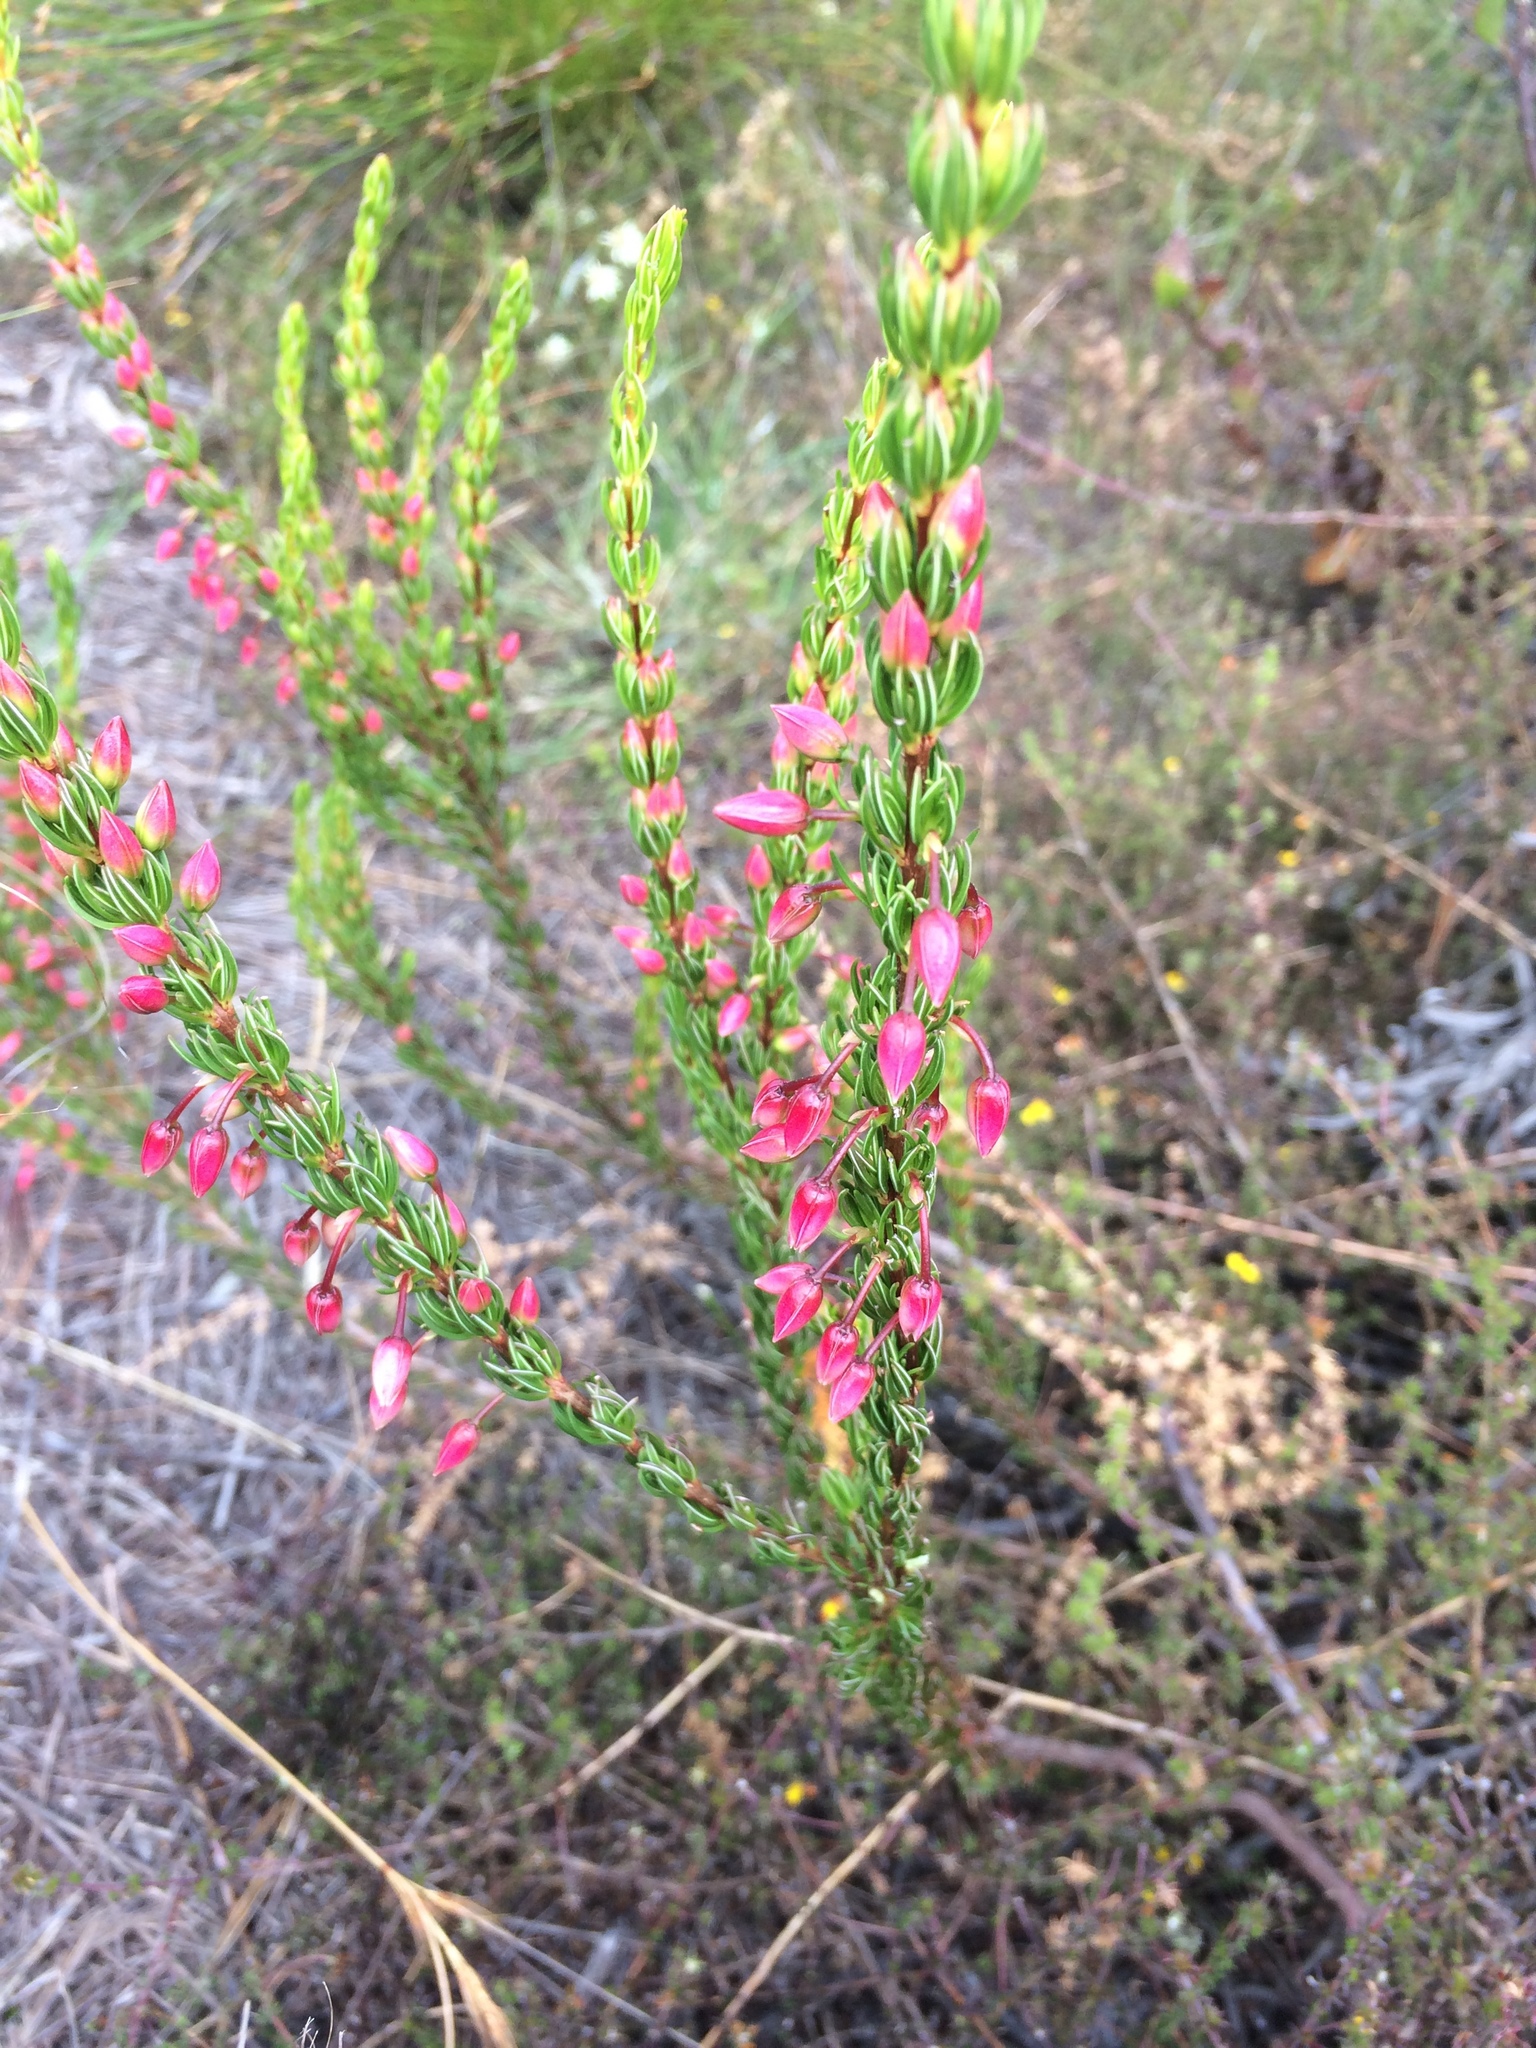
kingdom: Plantae
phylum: Tracheophyta
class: Magnoliopsida
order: Ericales
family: Ericaceae
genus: Erica
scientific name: Erica plukenetii
